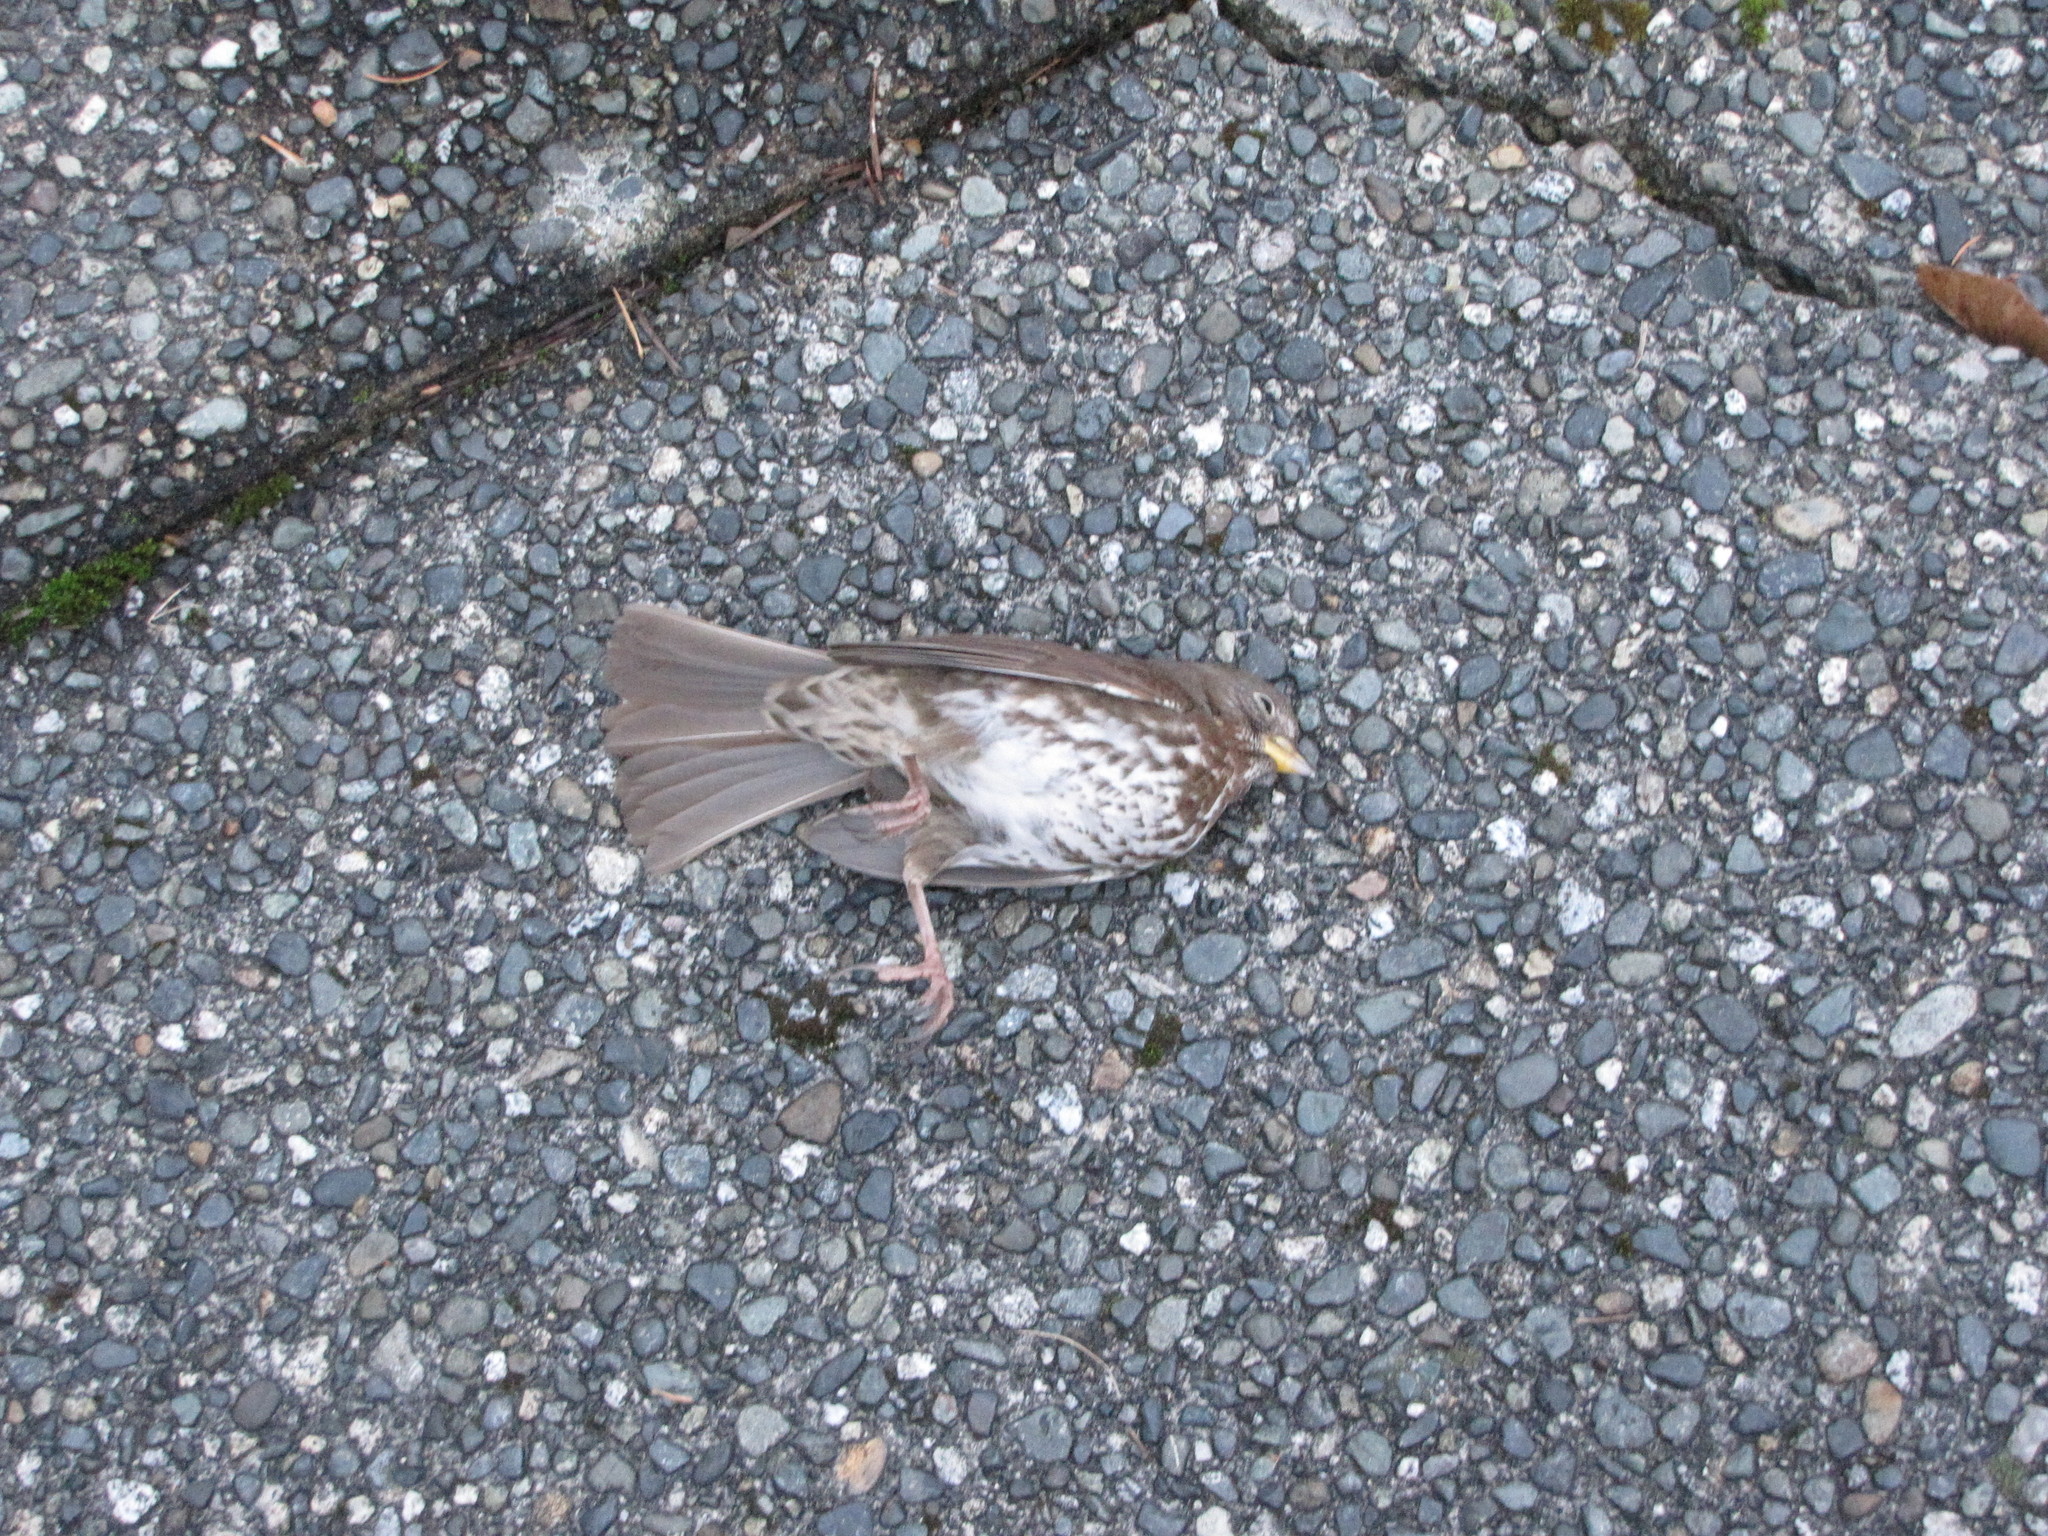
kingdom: Animalia
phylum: Chordata
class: Aves
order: Passeriformes
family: Passerellidae
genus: Passerella
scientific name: Passerella iliaca
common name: Fox sparrow
